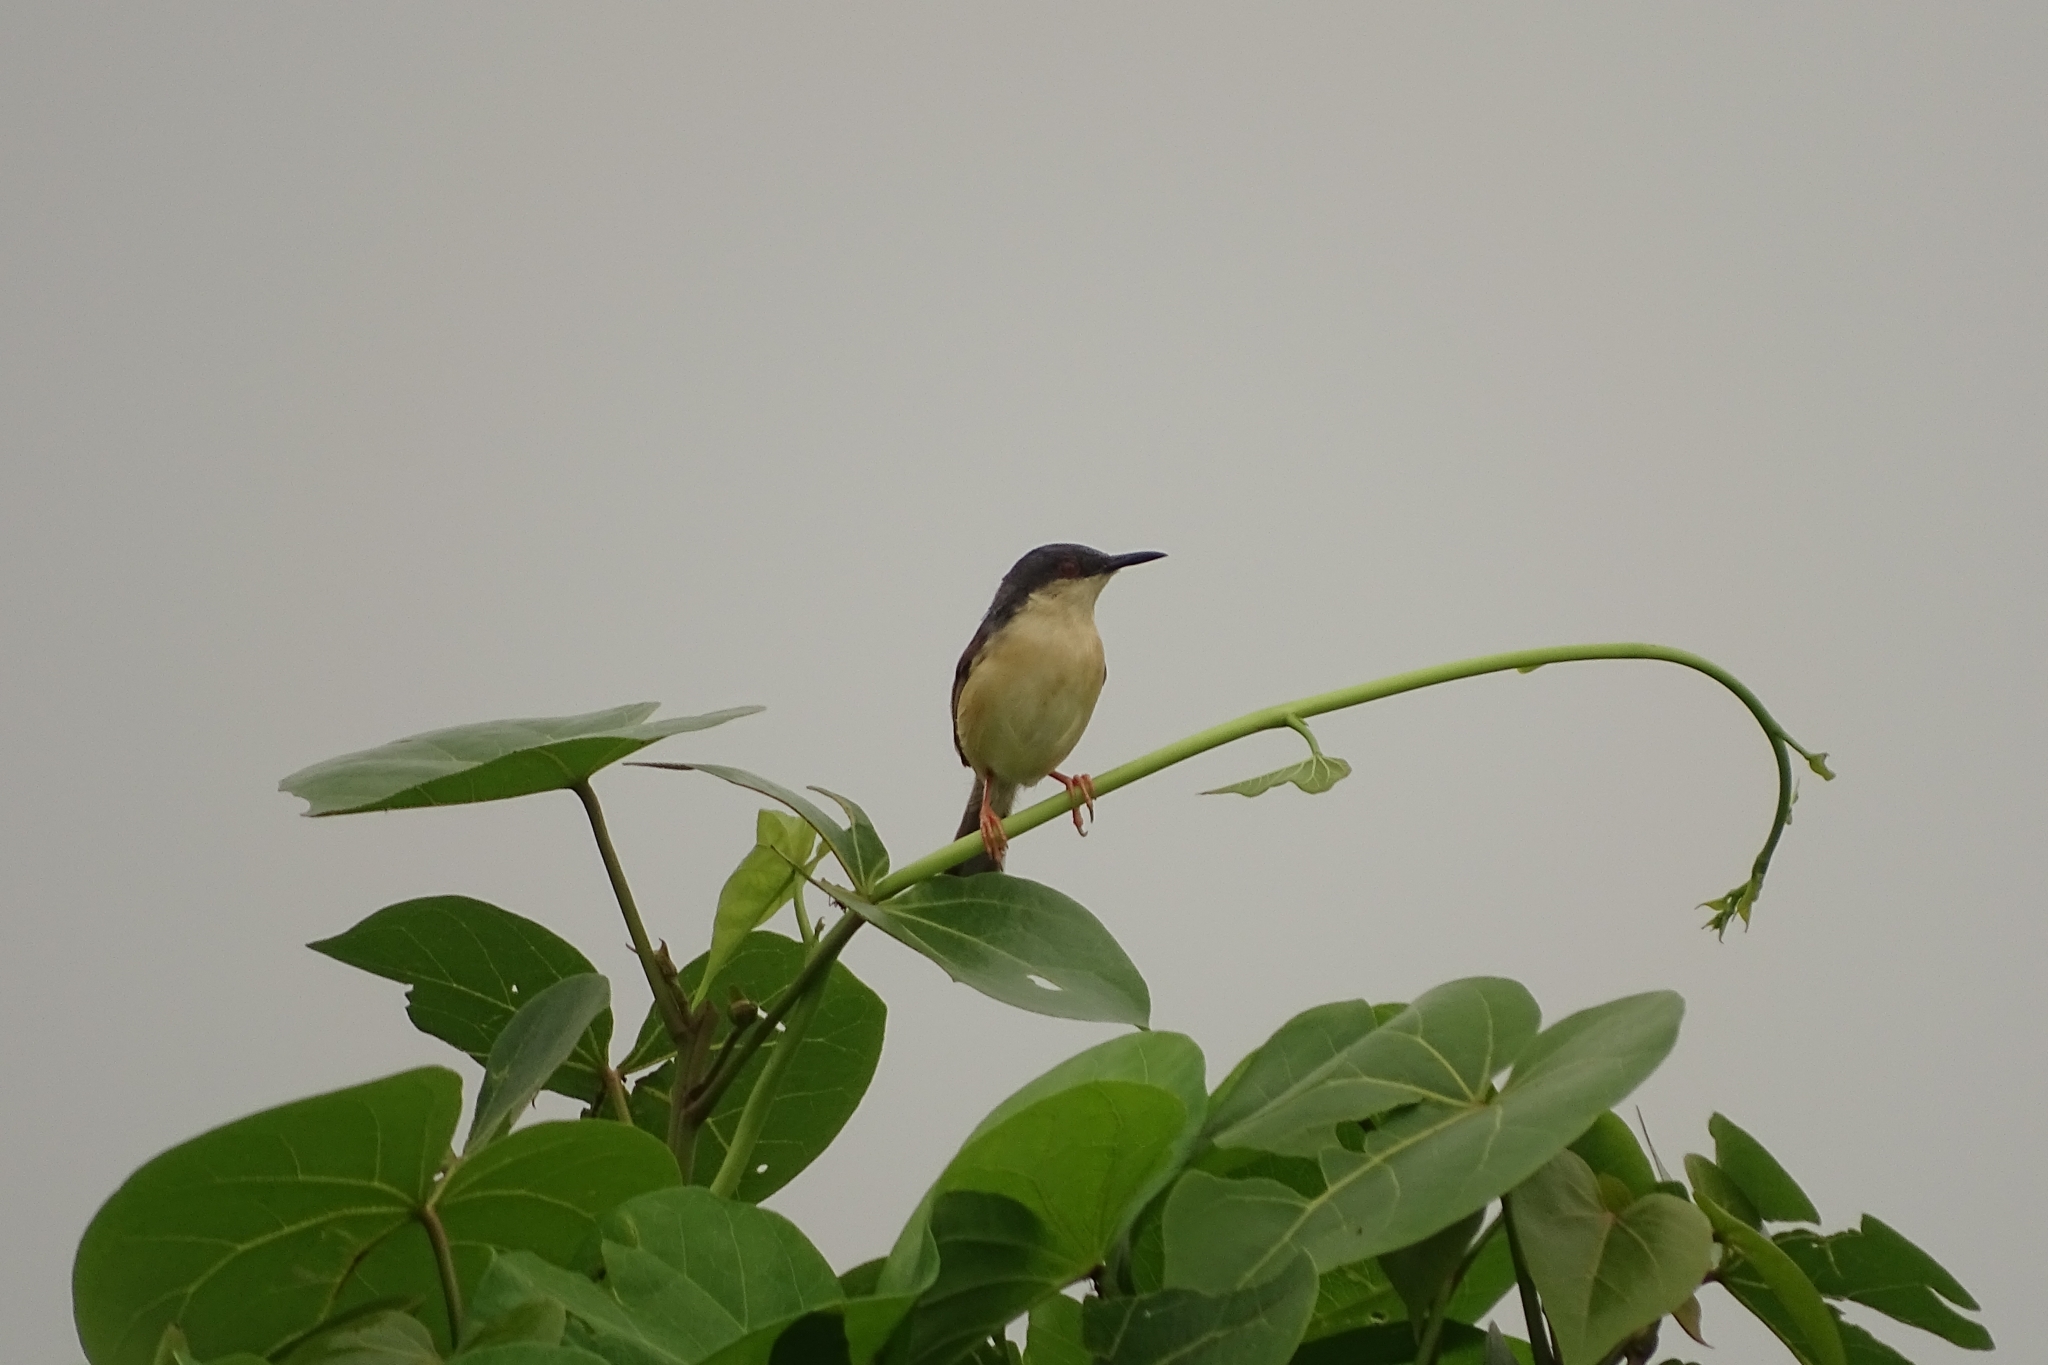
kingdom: Animalia
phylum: Chordata
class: Aves
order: Passeriformes
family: Cisticolidae
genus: Prinia
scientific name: Prinia socialis
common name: Ashy prinia
